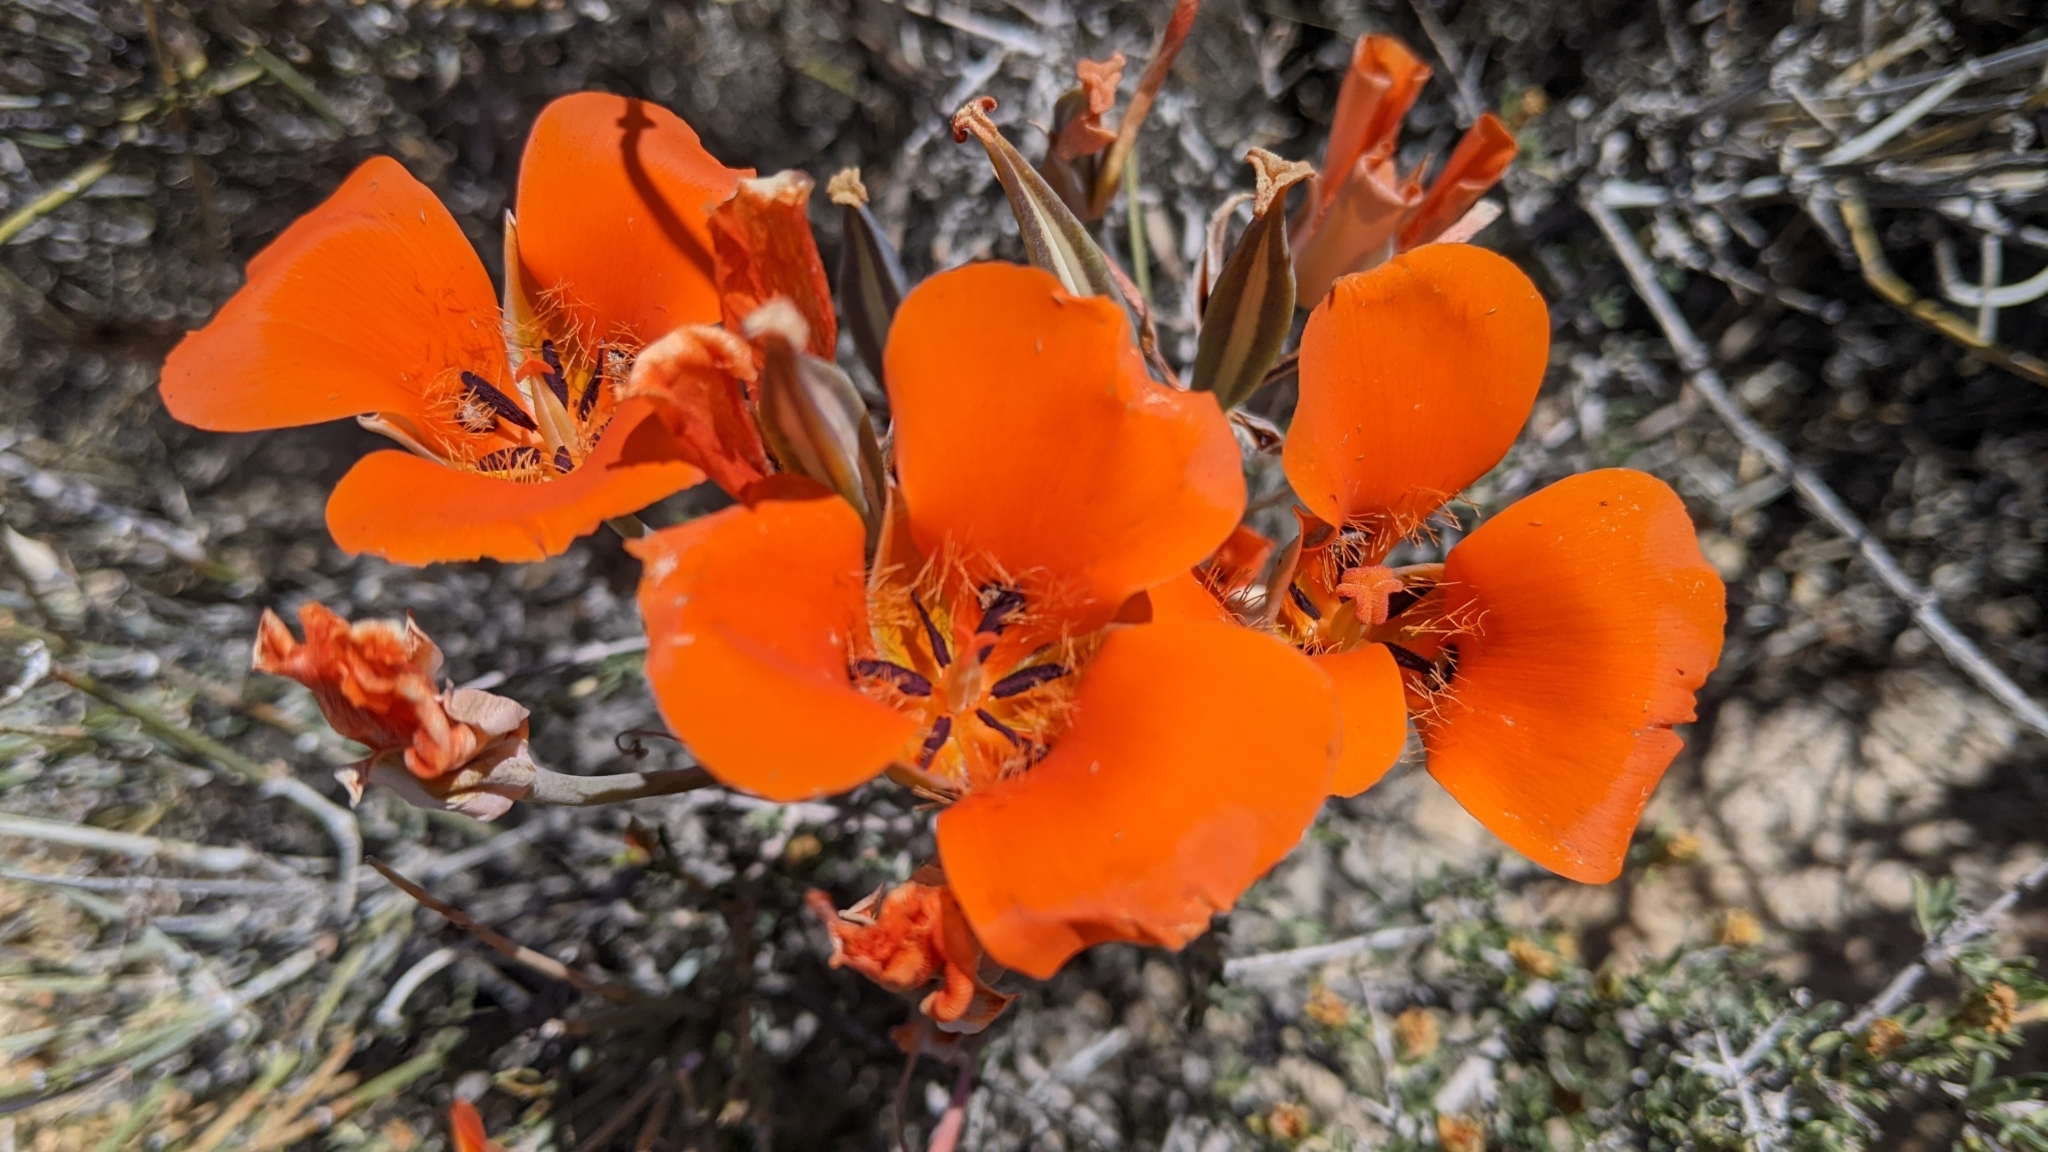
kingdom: Plantae
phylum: Tracheophyta
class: Liliopsida
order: Liliales
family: Liliaceae
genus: Calochortus
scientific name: Calochortus kennedyi
